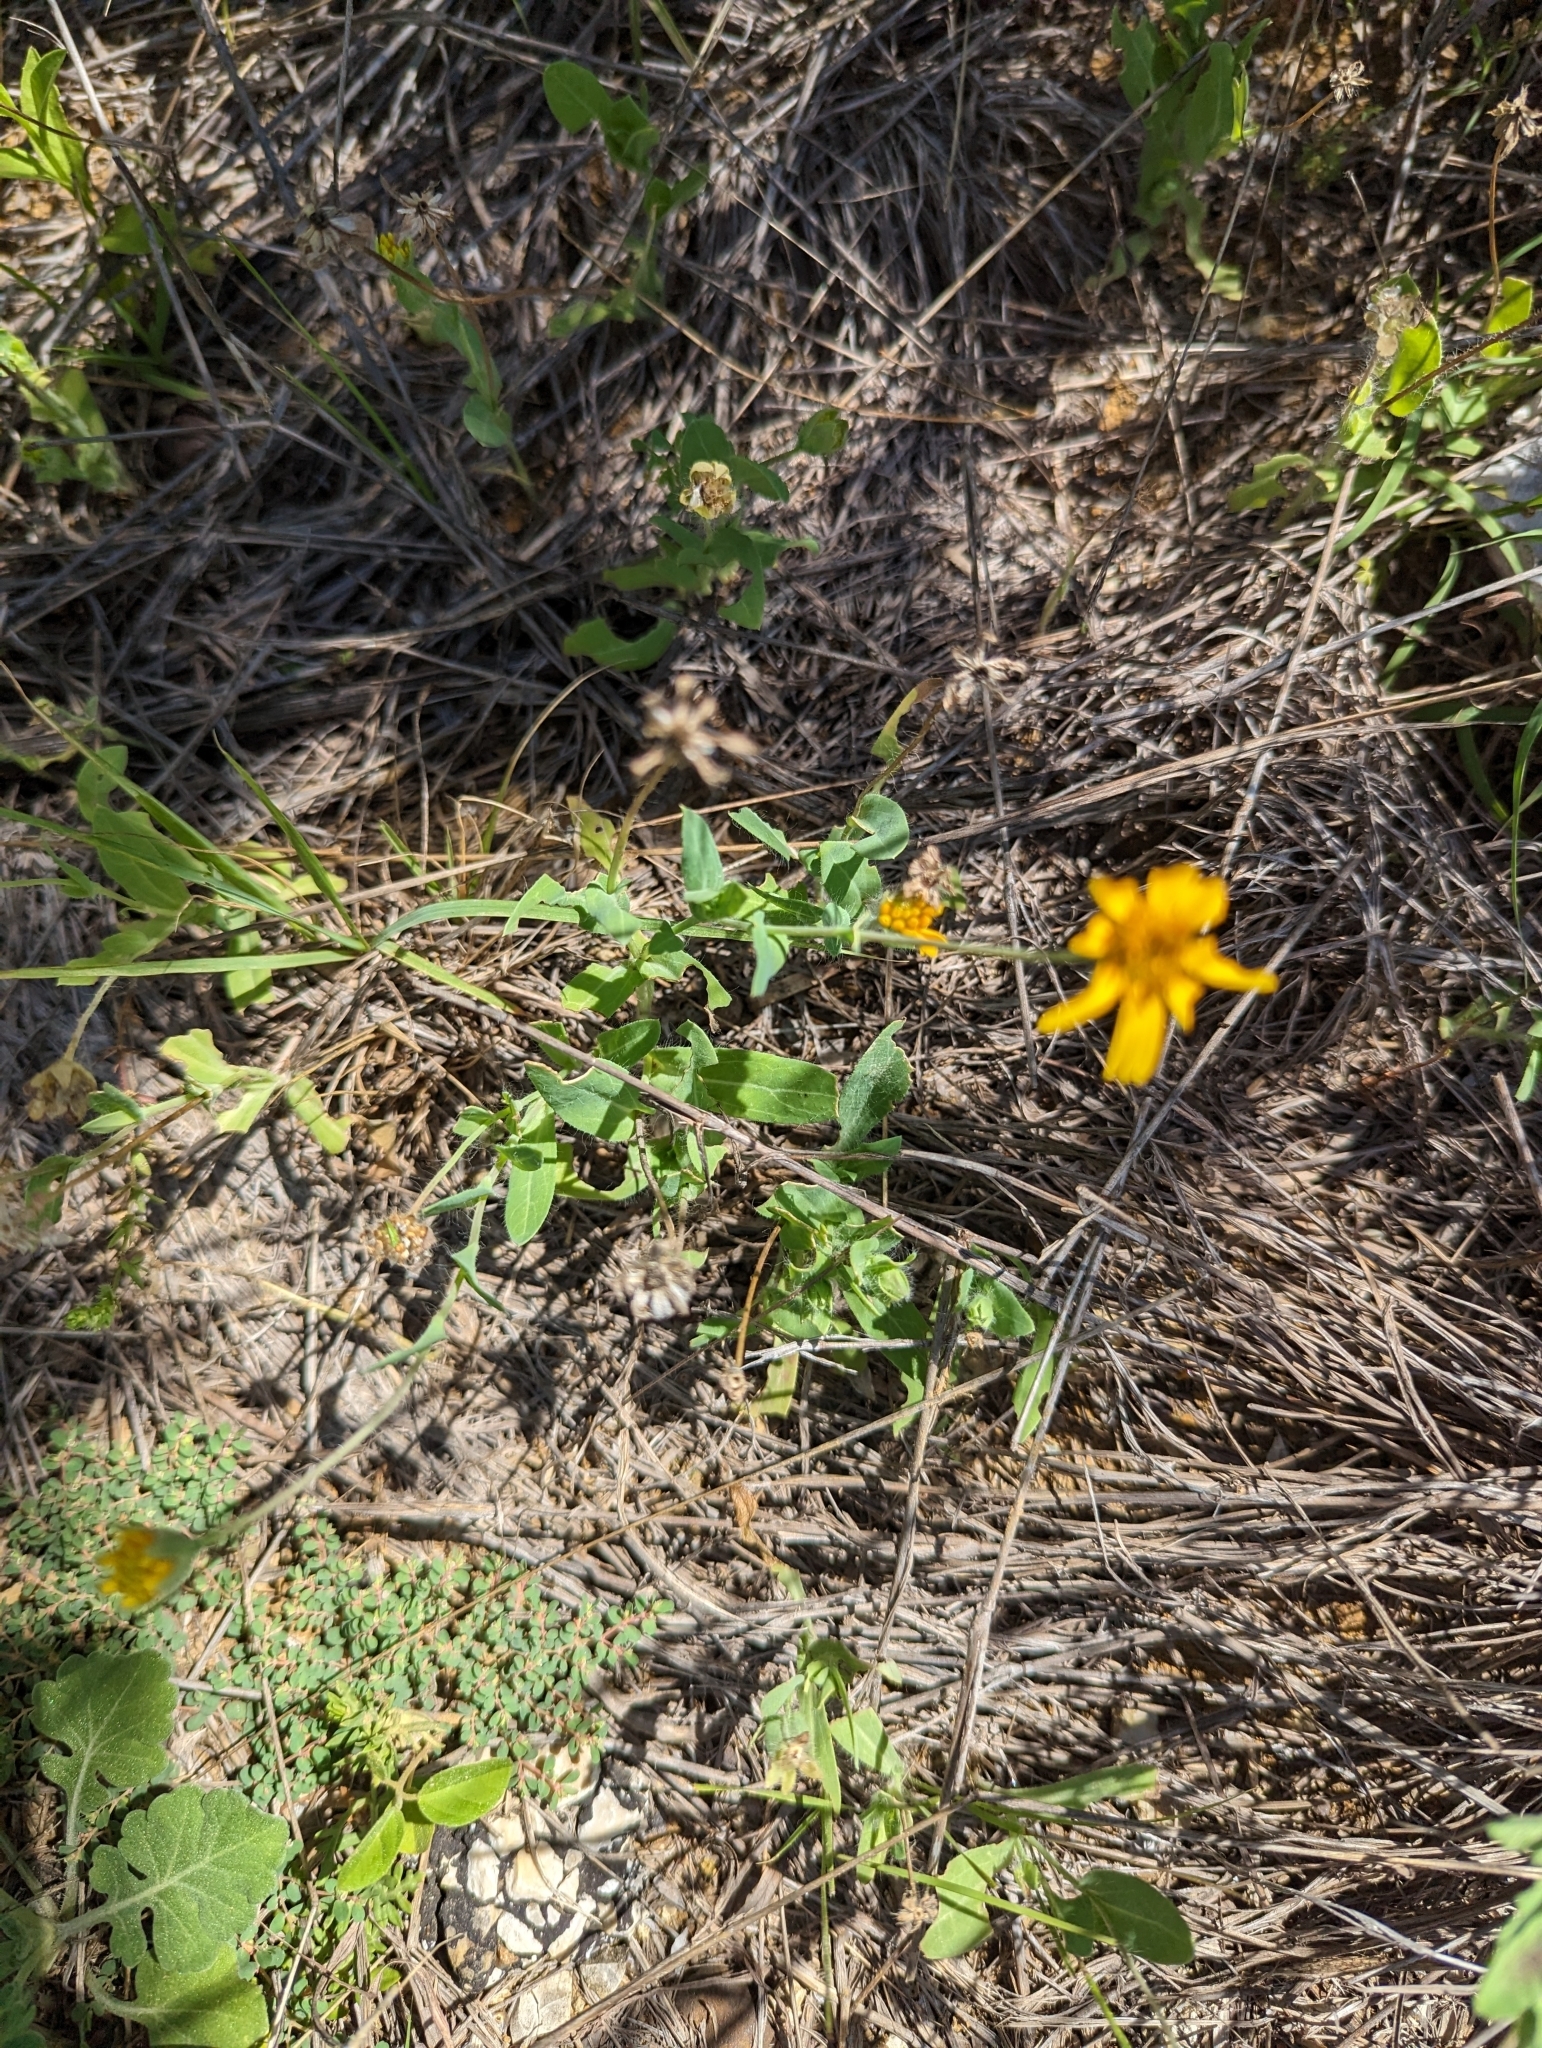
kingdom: Plantae
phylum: Tracheophyta
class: Magnoliopsida
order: Asterales
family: Asteraceae
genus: Amblyolepis
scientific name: Amblyolepis setigera
